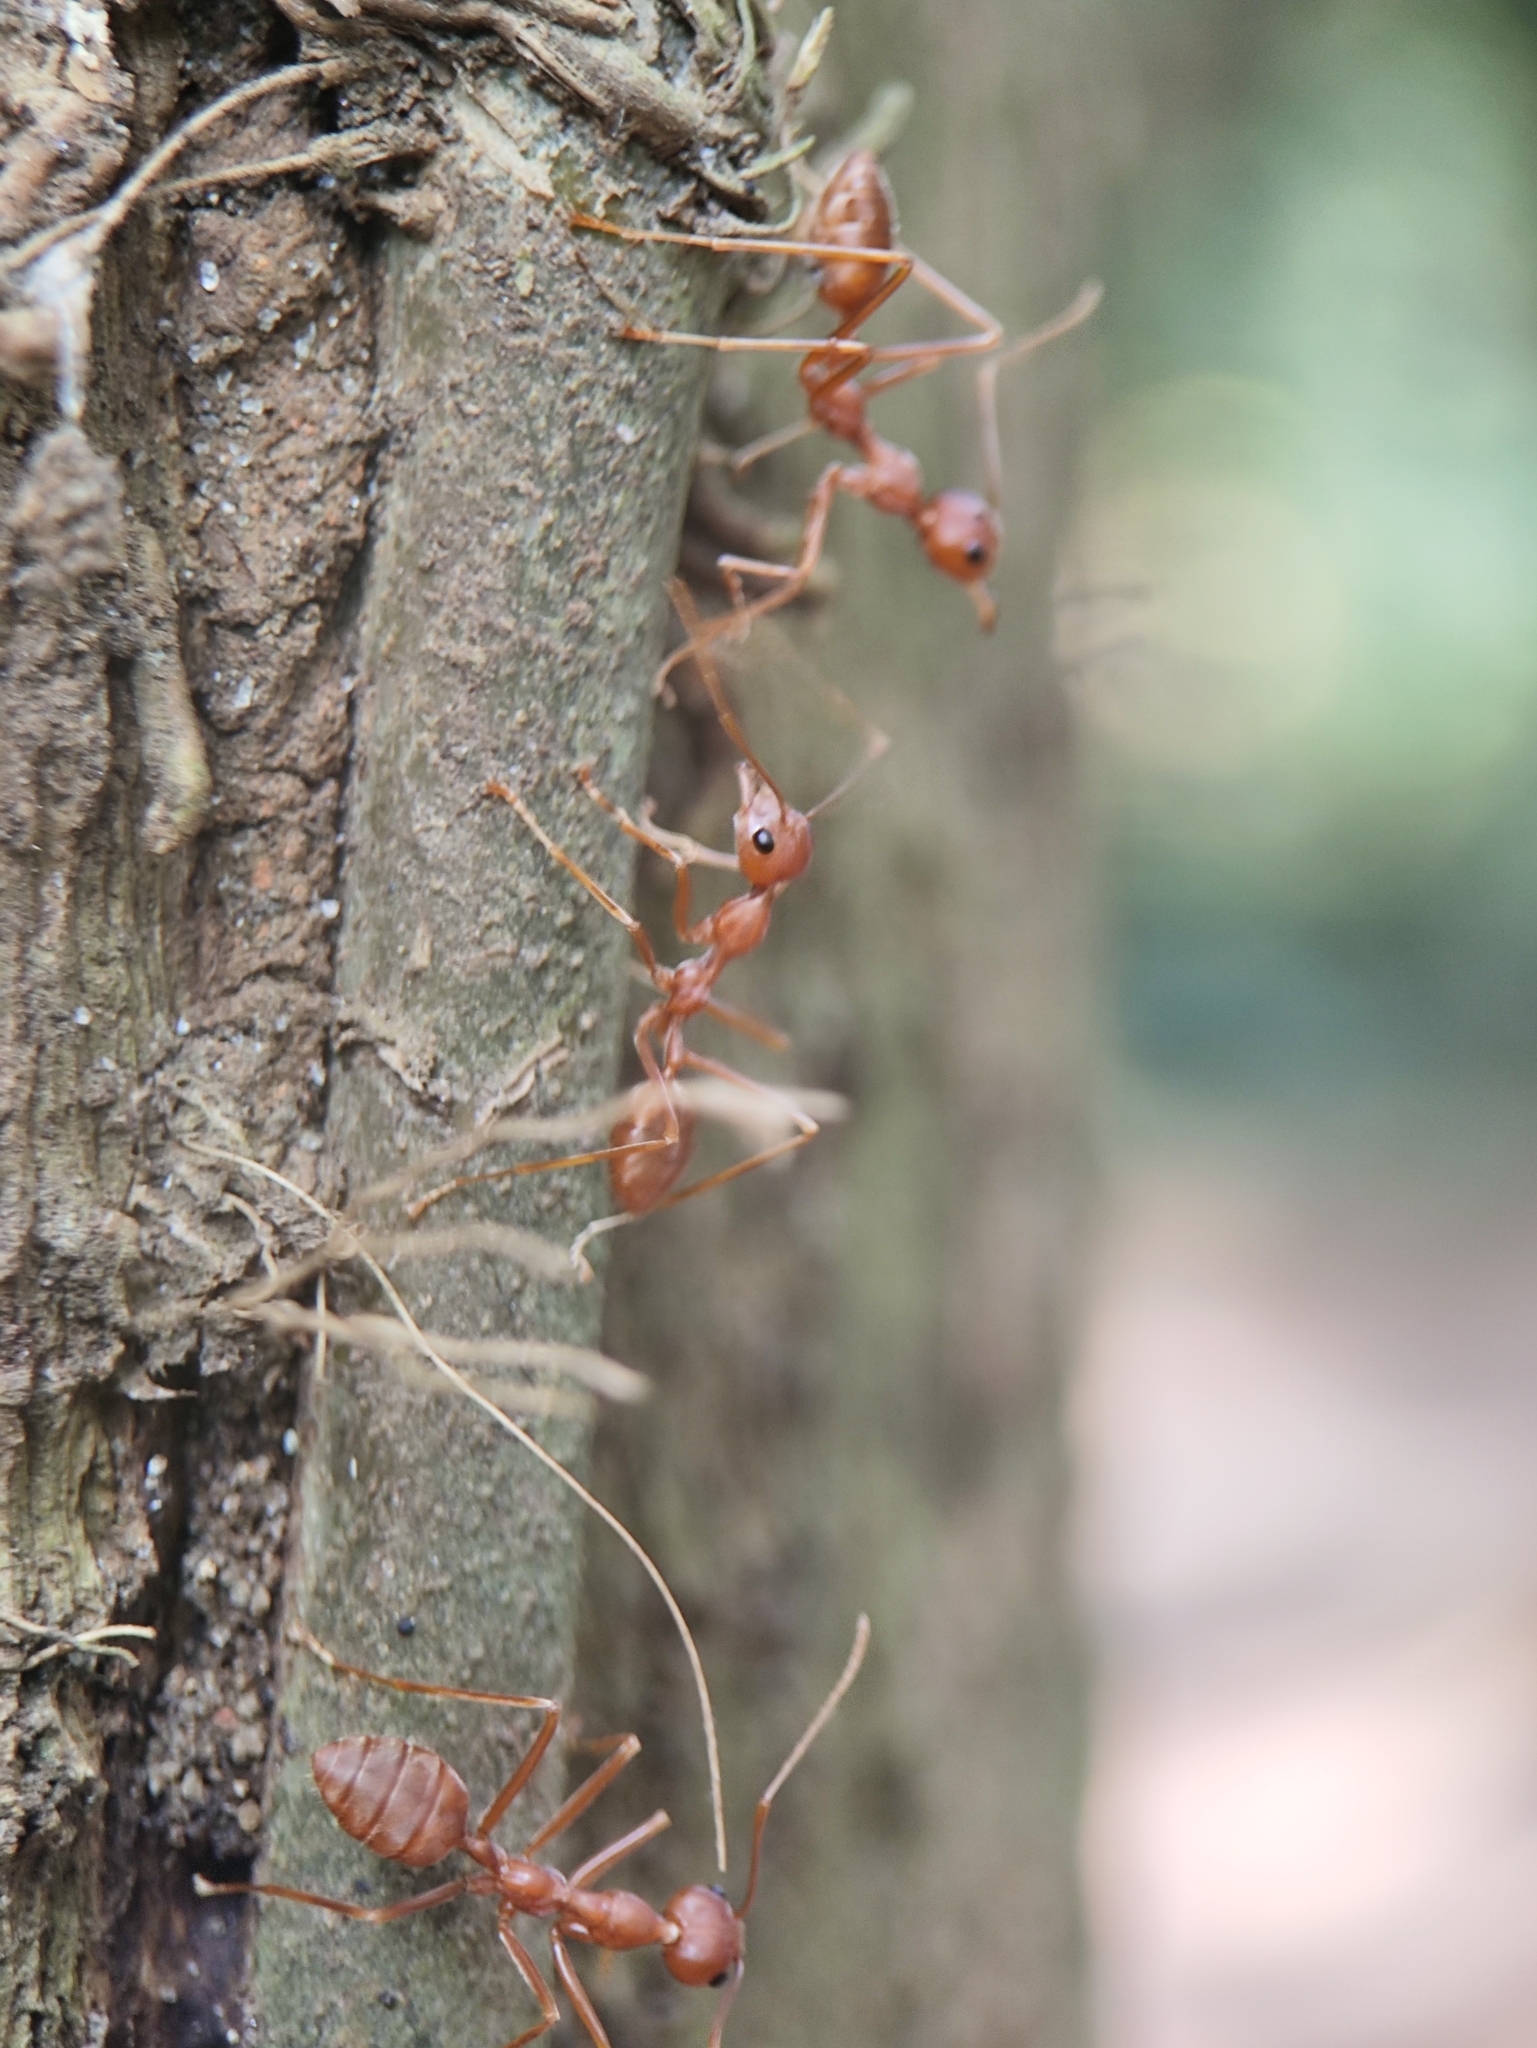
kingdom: Animalia
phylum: Arthropoda
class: Insecta
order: Hymenoptera
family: Formicidae
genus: Oecophylla
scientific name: Oecophylla smaragdina
